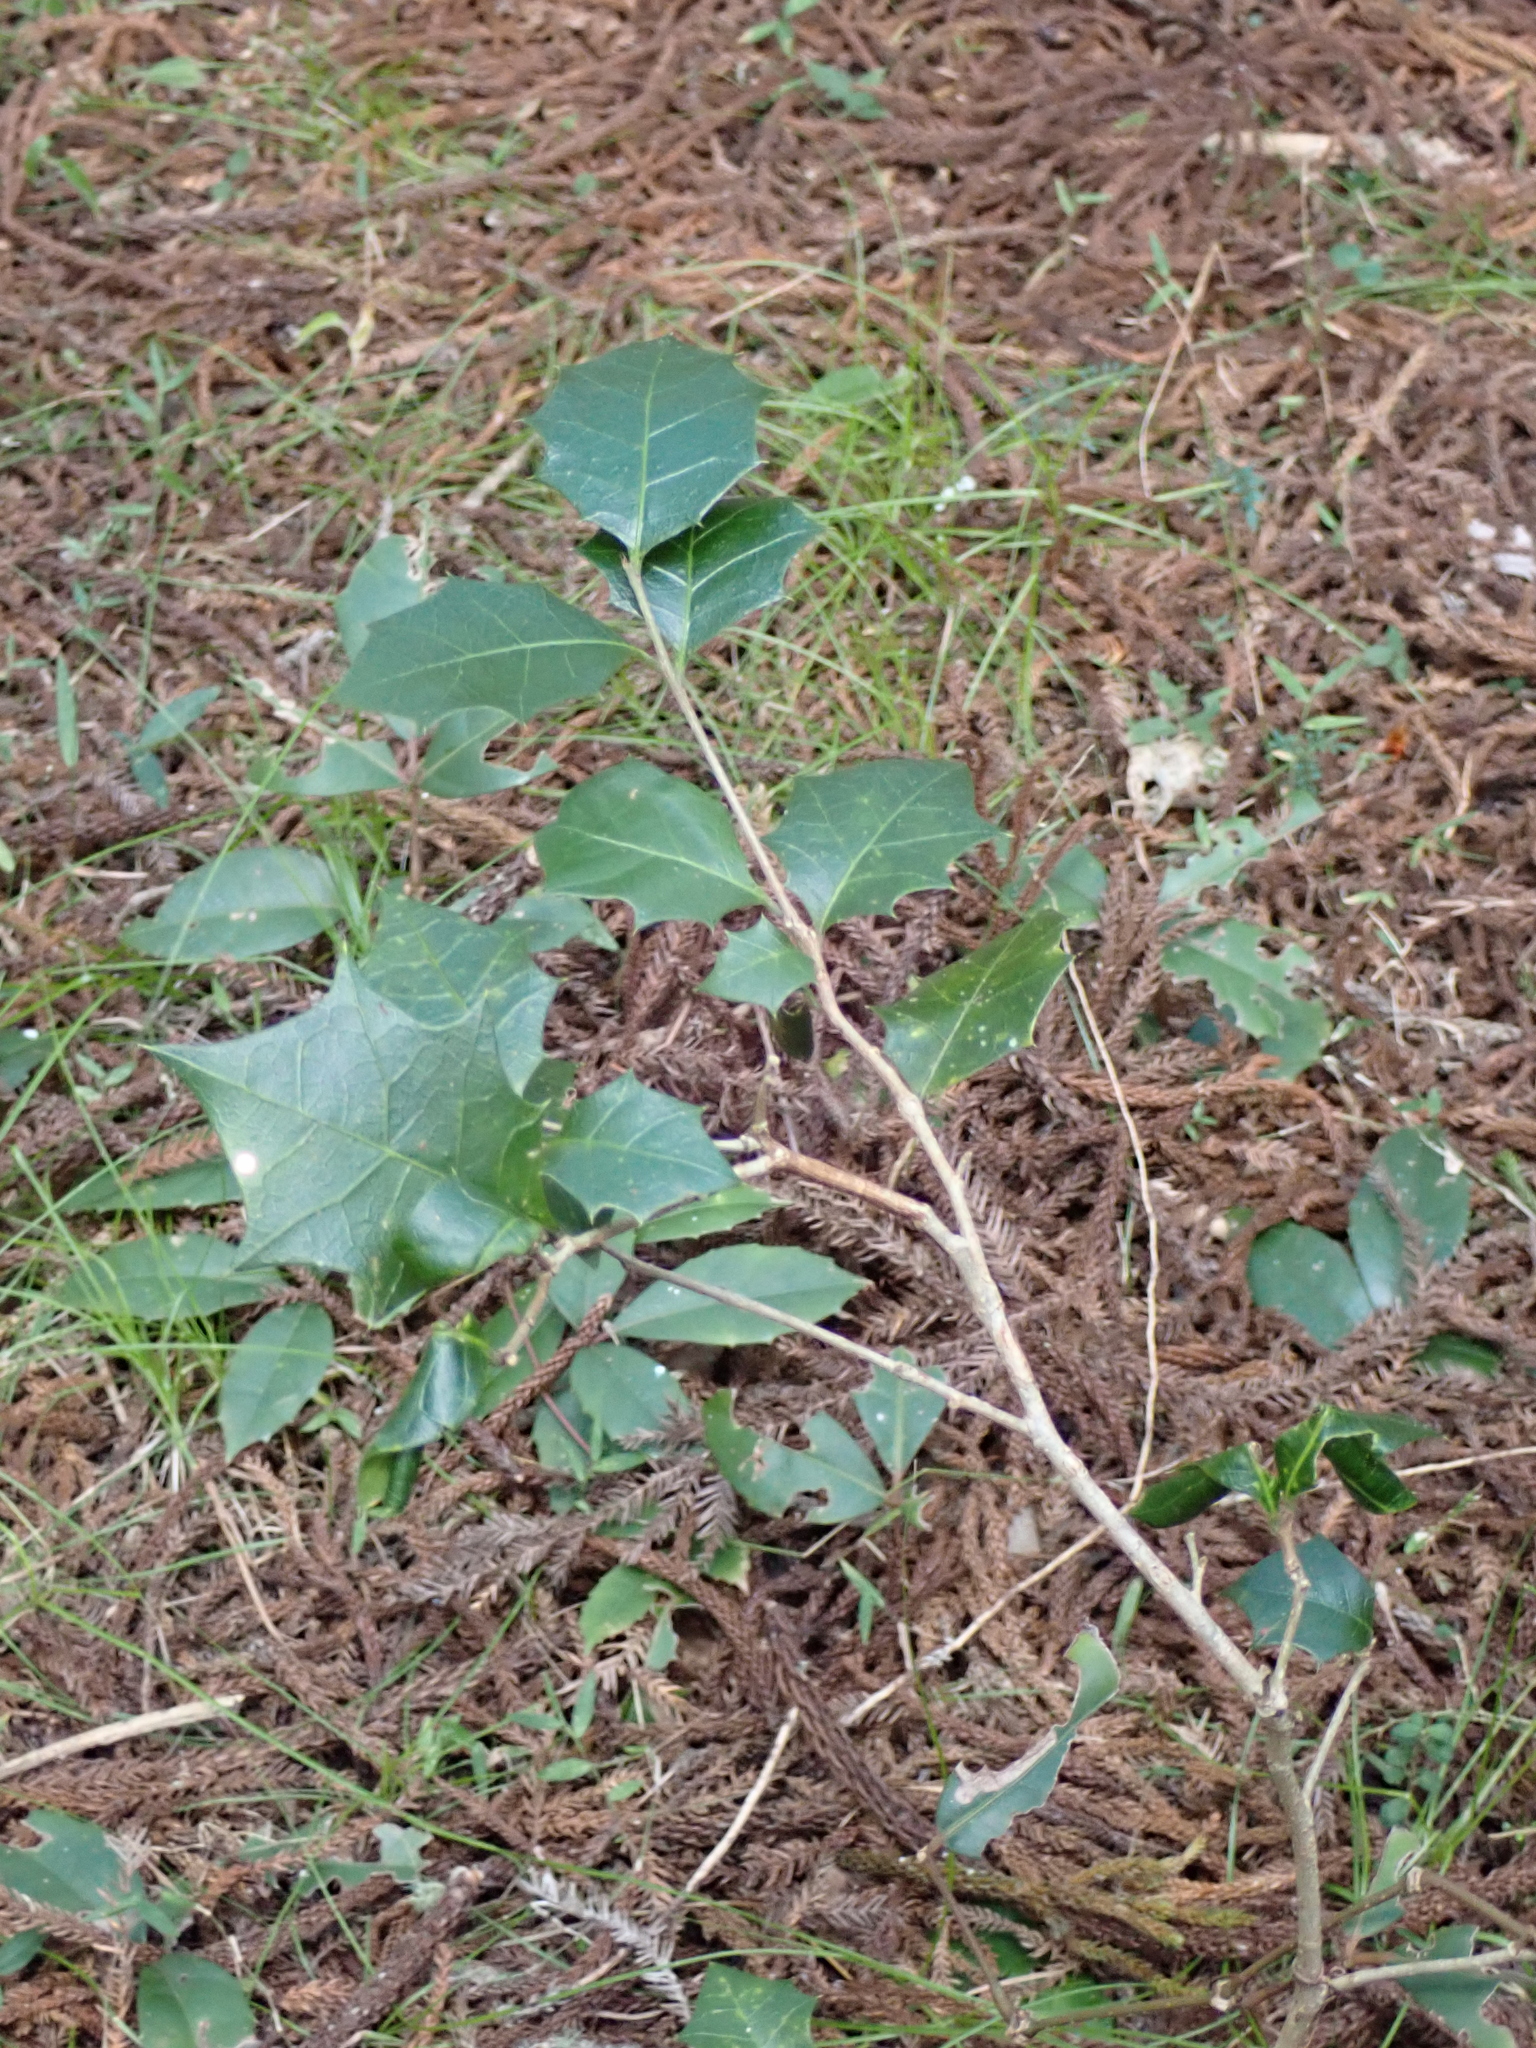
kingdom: Plantae
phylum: Tracheophyta
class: Magnoliopsida
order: Malpighiales
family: Euphorbiaceae
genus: Alchornea
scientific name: Alchornea ilicifolia
